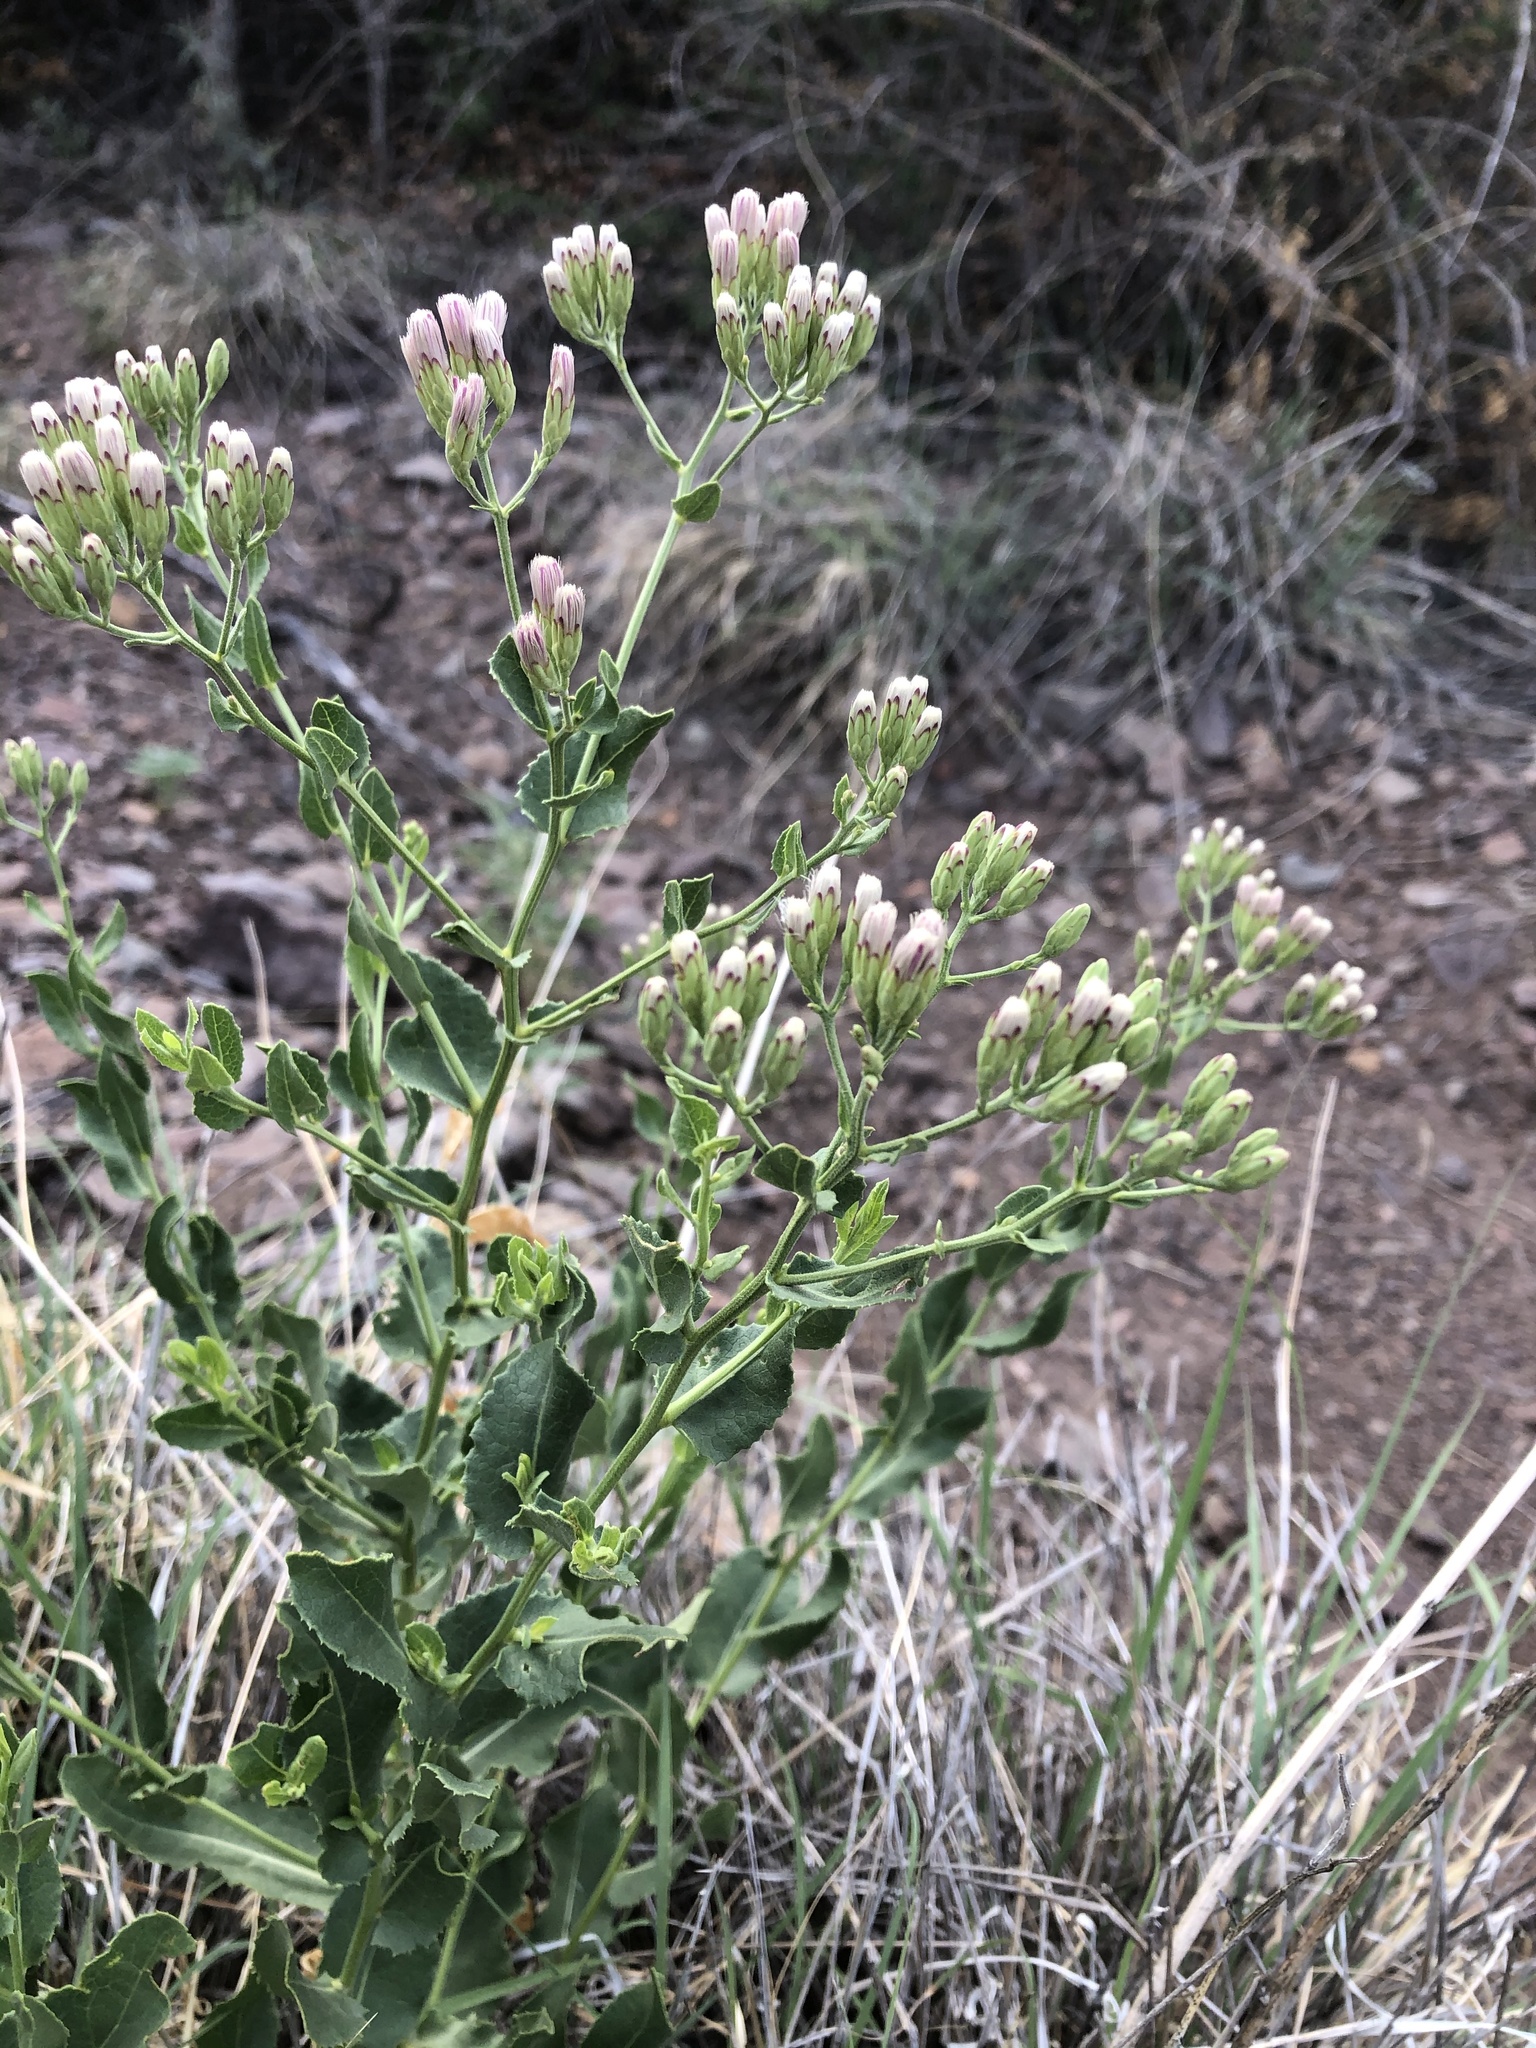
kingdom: Plantae
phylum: Tracheophyta
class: Magnoliopsida
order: Asterales
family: Asteraceae
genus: Acourtia
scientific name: Acourtia wrightii
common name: Brownfoot
